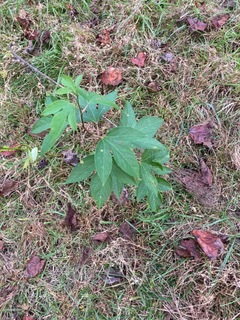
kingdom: Plantae
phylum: Tracheophyta
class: Magnoliopsida
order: Malpighiales
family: Passifloraceae
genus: Passiflora
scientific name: Passiflora incarnata
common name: Apricot-vine
